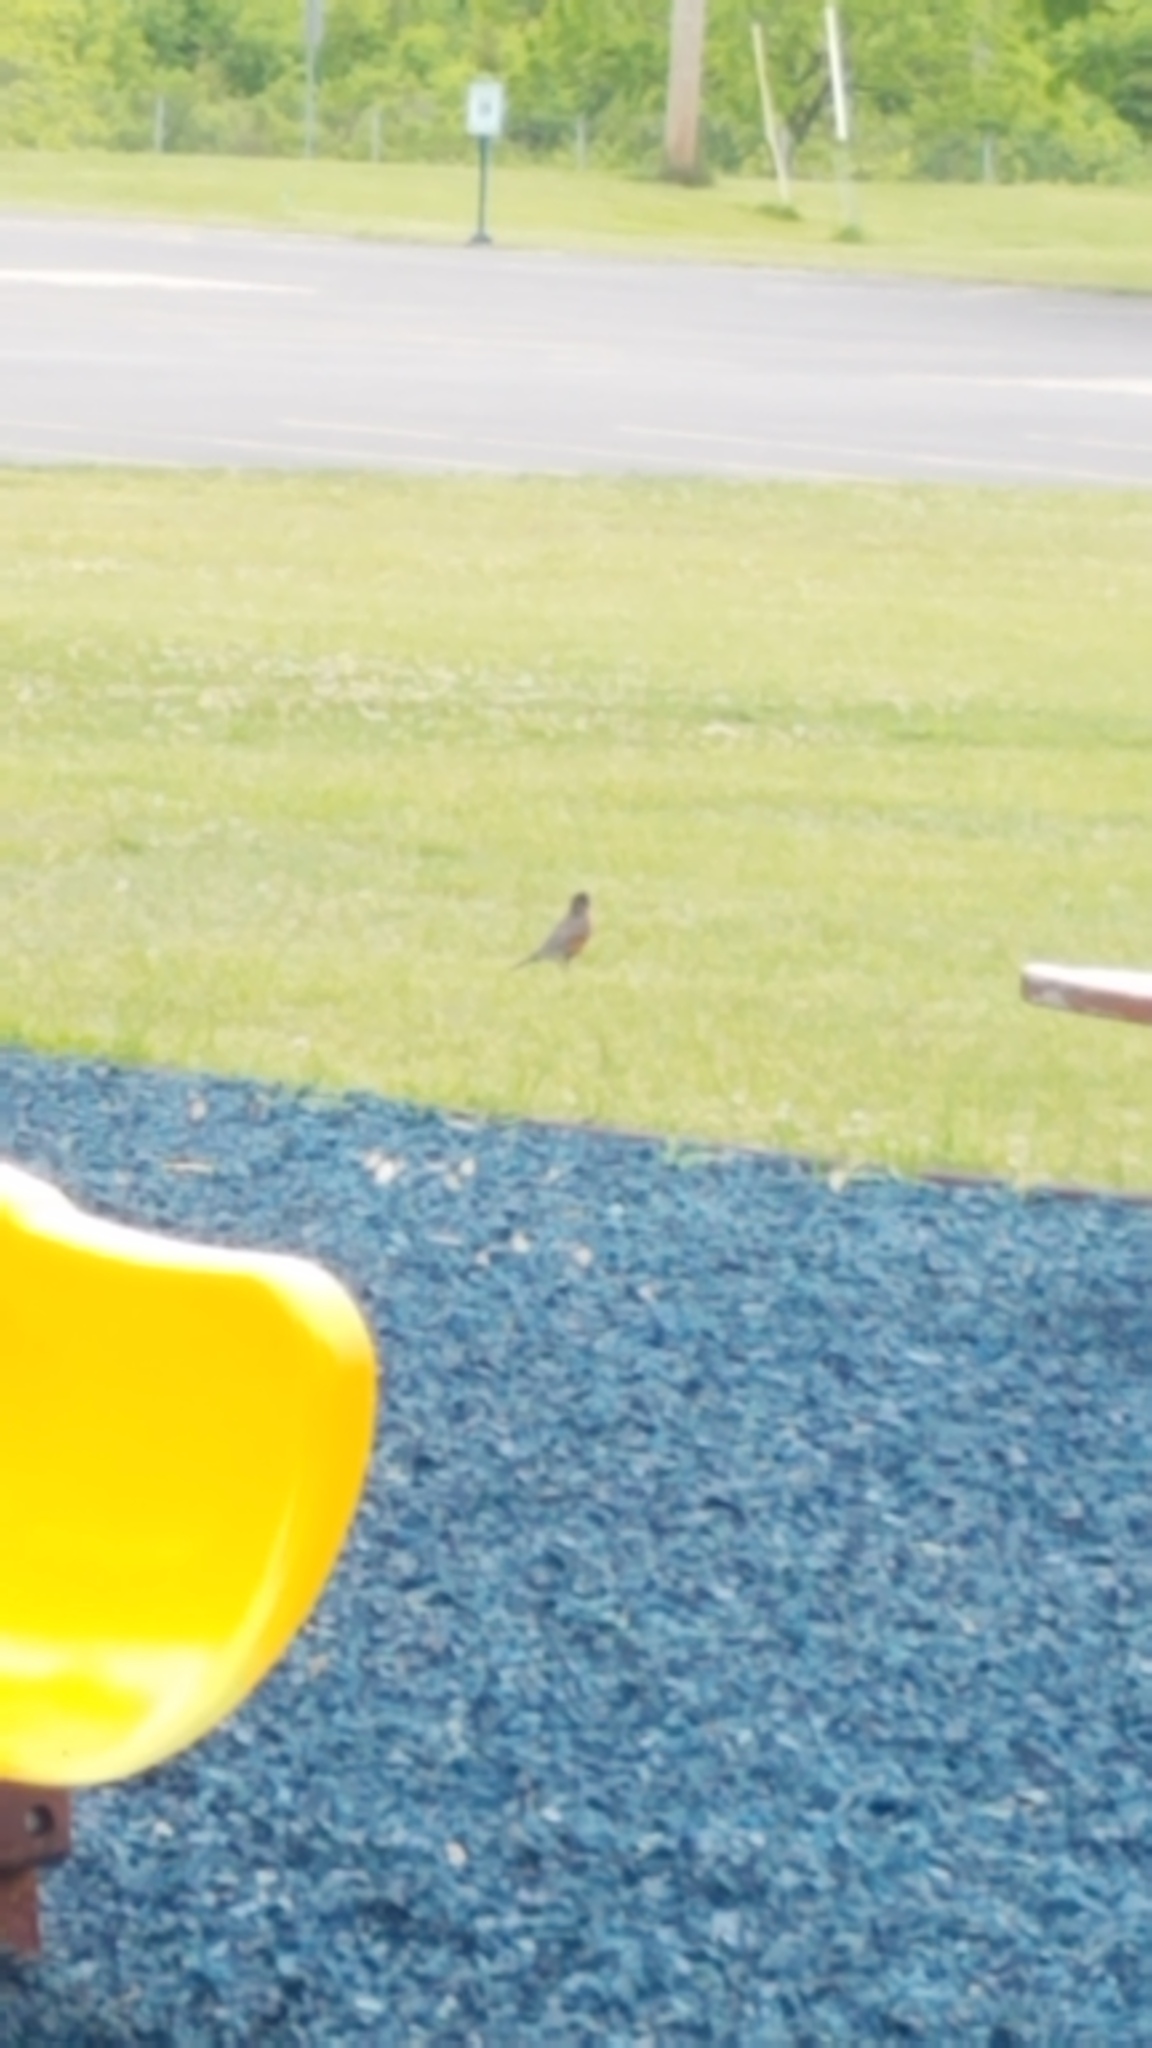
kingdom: Animalia
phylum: Chordata
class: Aves
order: Passeriformes
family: Turdidae
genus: Turdus
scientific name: Turdus migratorius
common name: American robin
